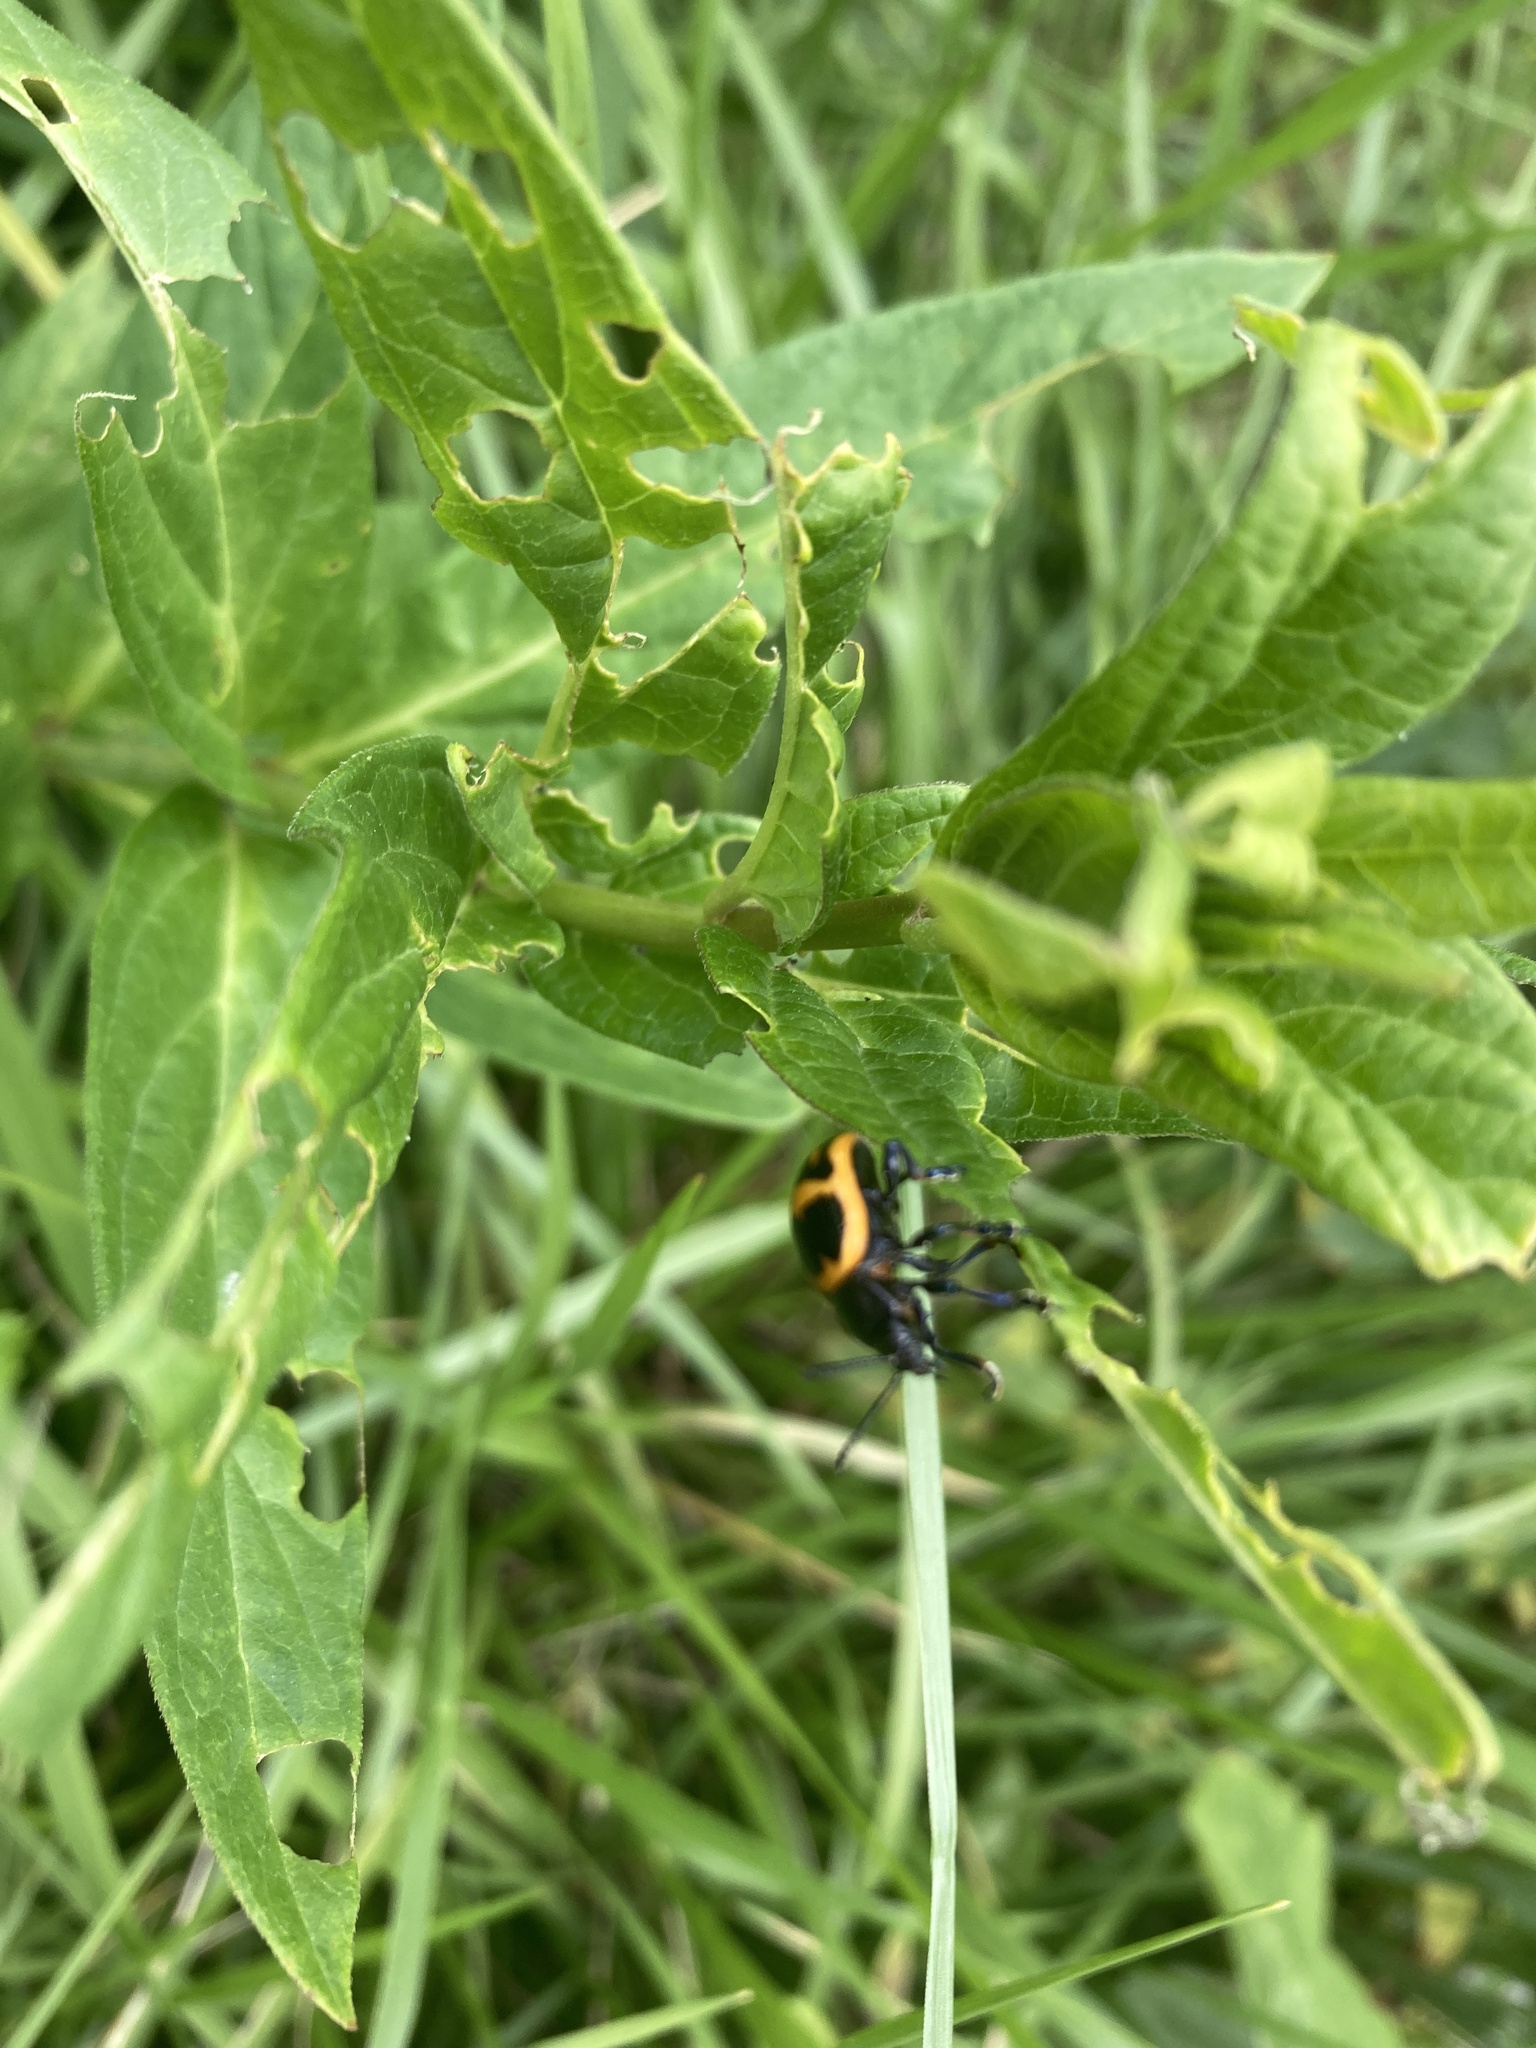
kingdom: Animalia
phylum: Arthropoda
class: Insecta
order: Coleoptera
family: Chrysomelidae
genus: Labidomera
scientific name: Labidomera clivicollis
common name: Swamp milkweed leaf beetle
